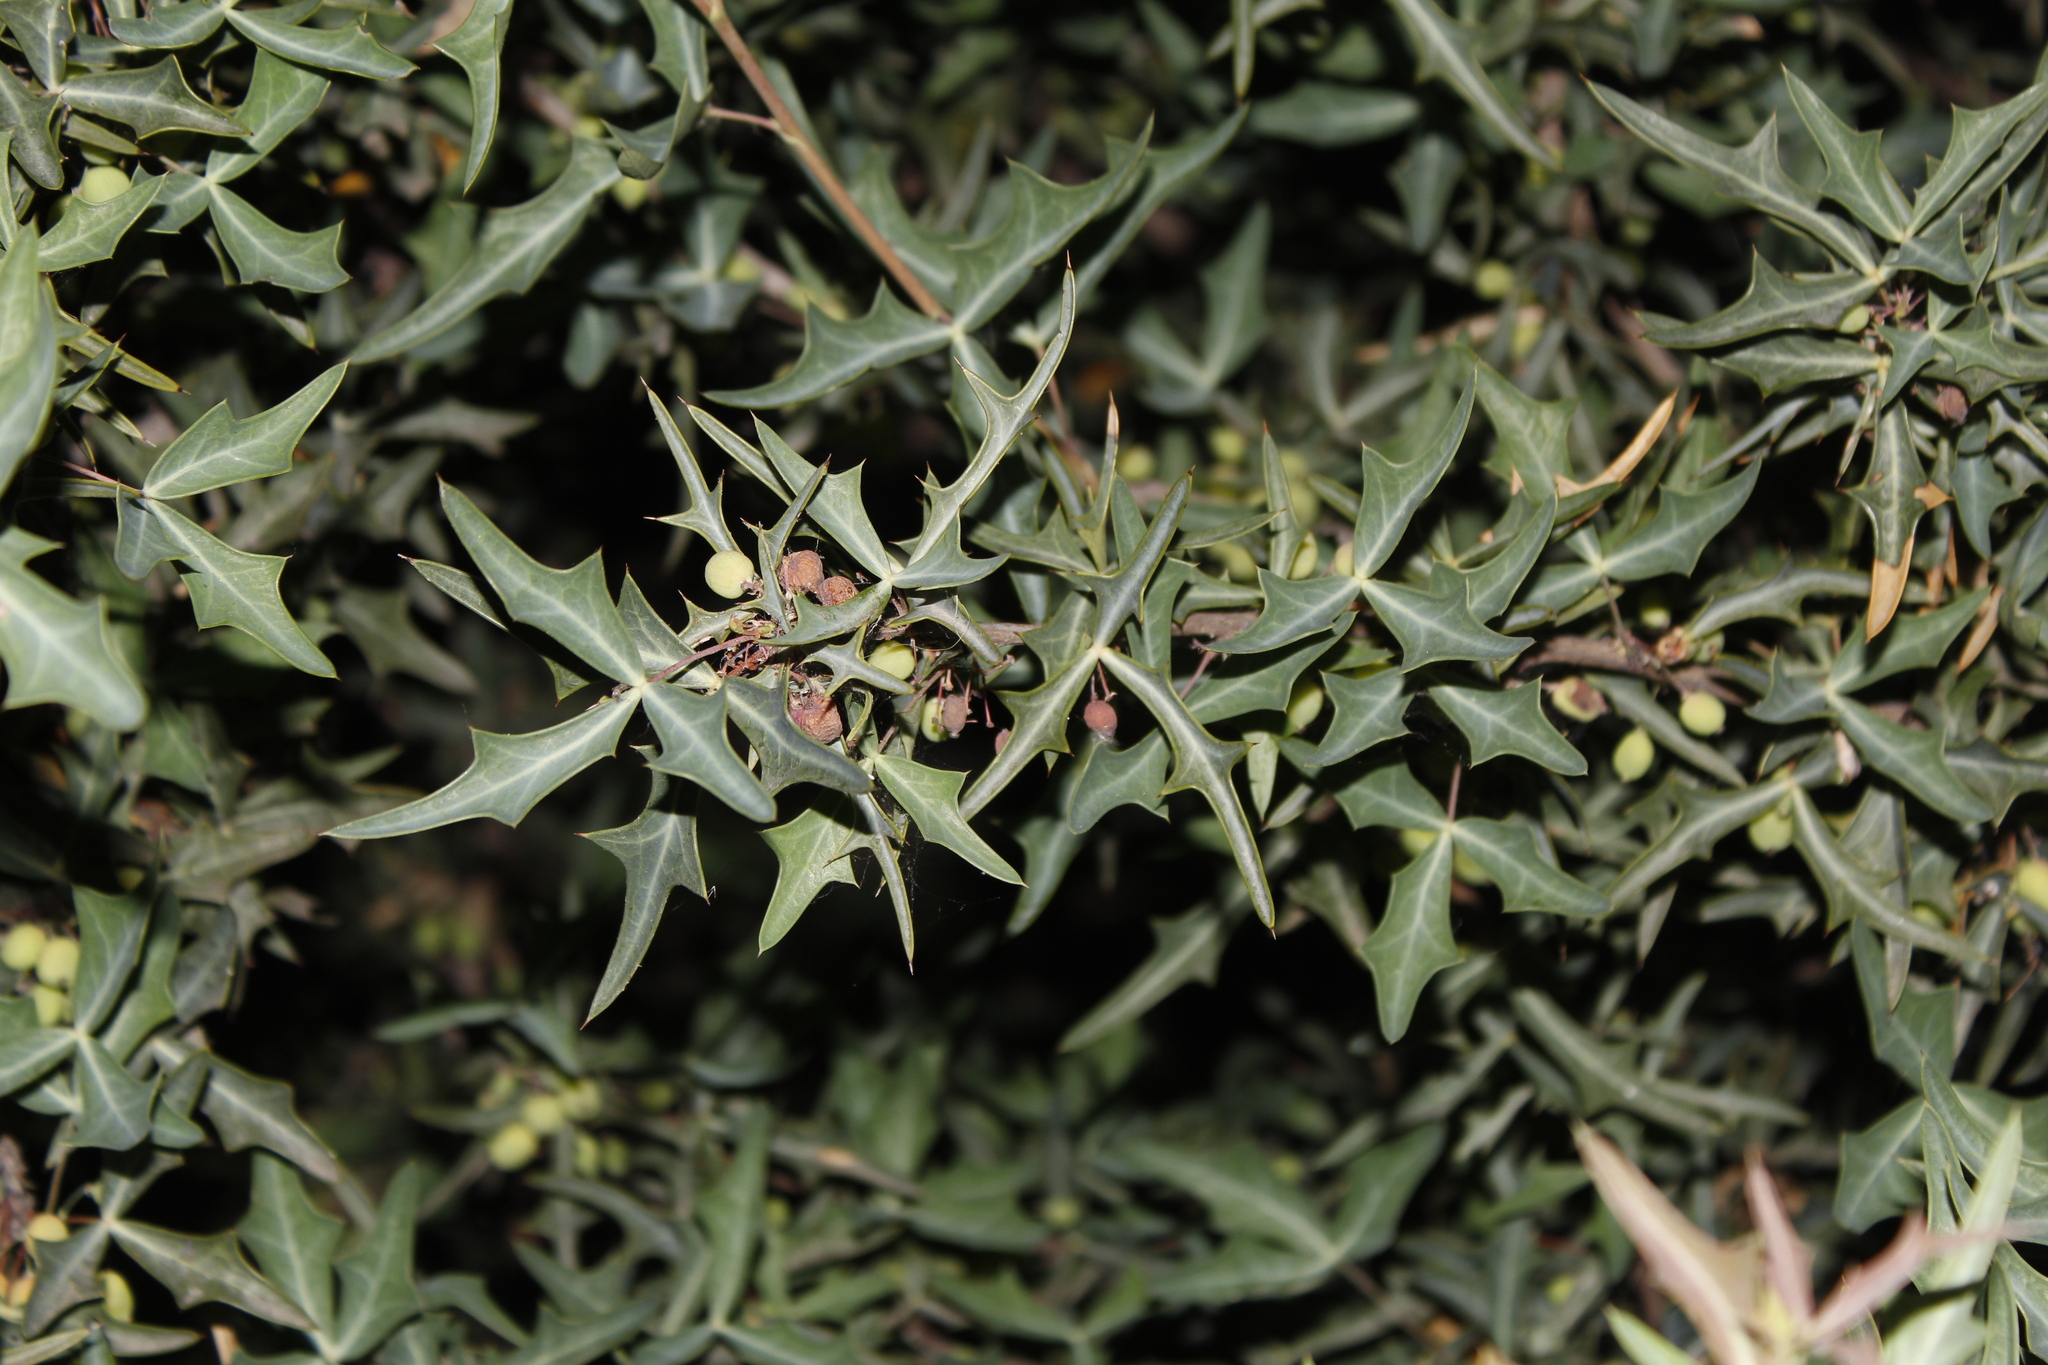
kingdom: Plantae
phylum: Tracheophyta
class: Magnoliopsida
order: Ranunculales
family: Berberidaceae
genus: Alloberberis
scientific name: Alloberberis trifoliolata
